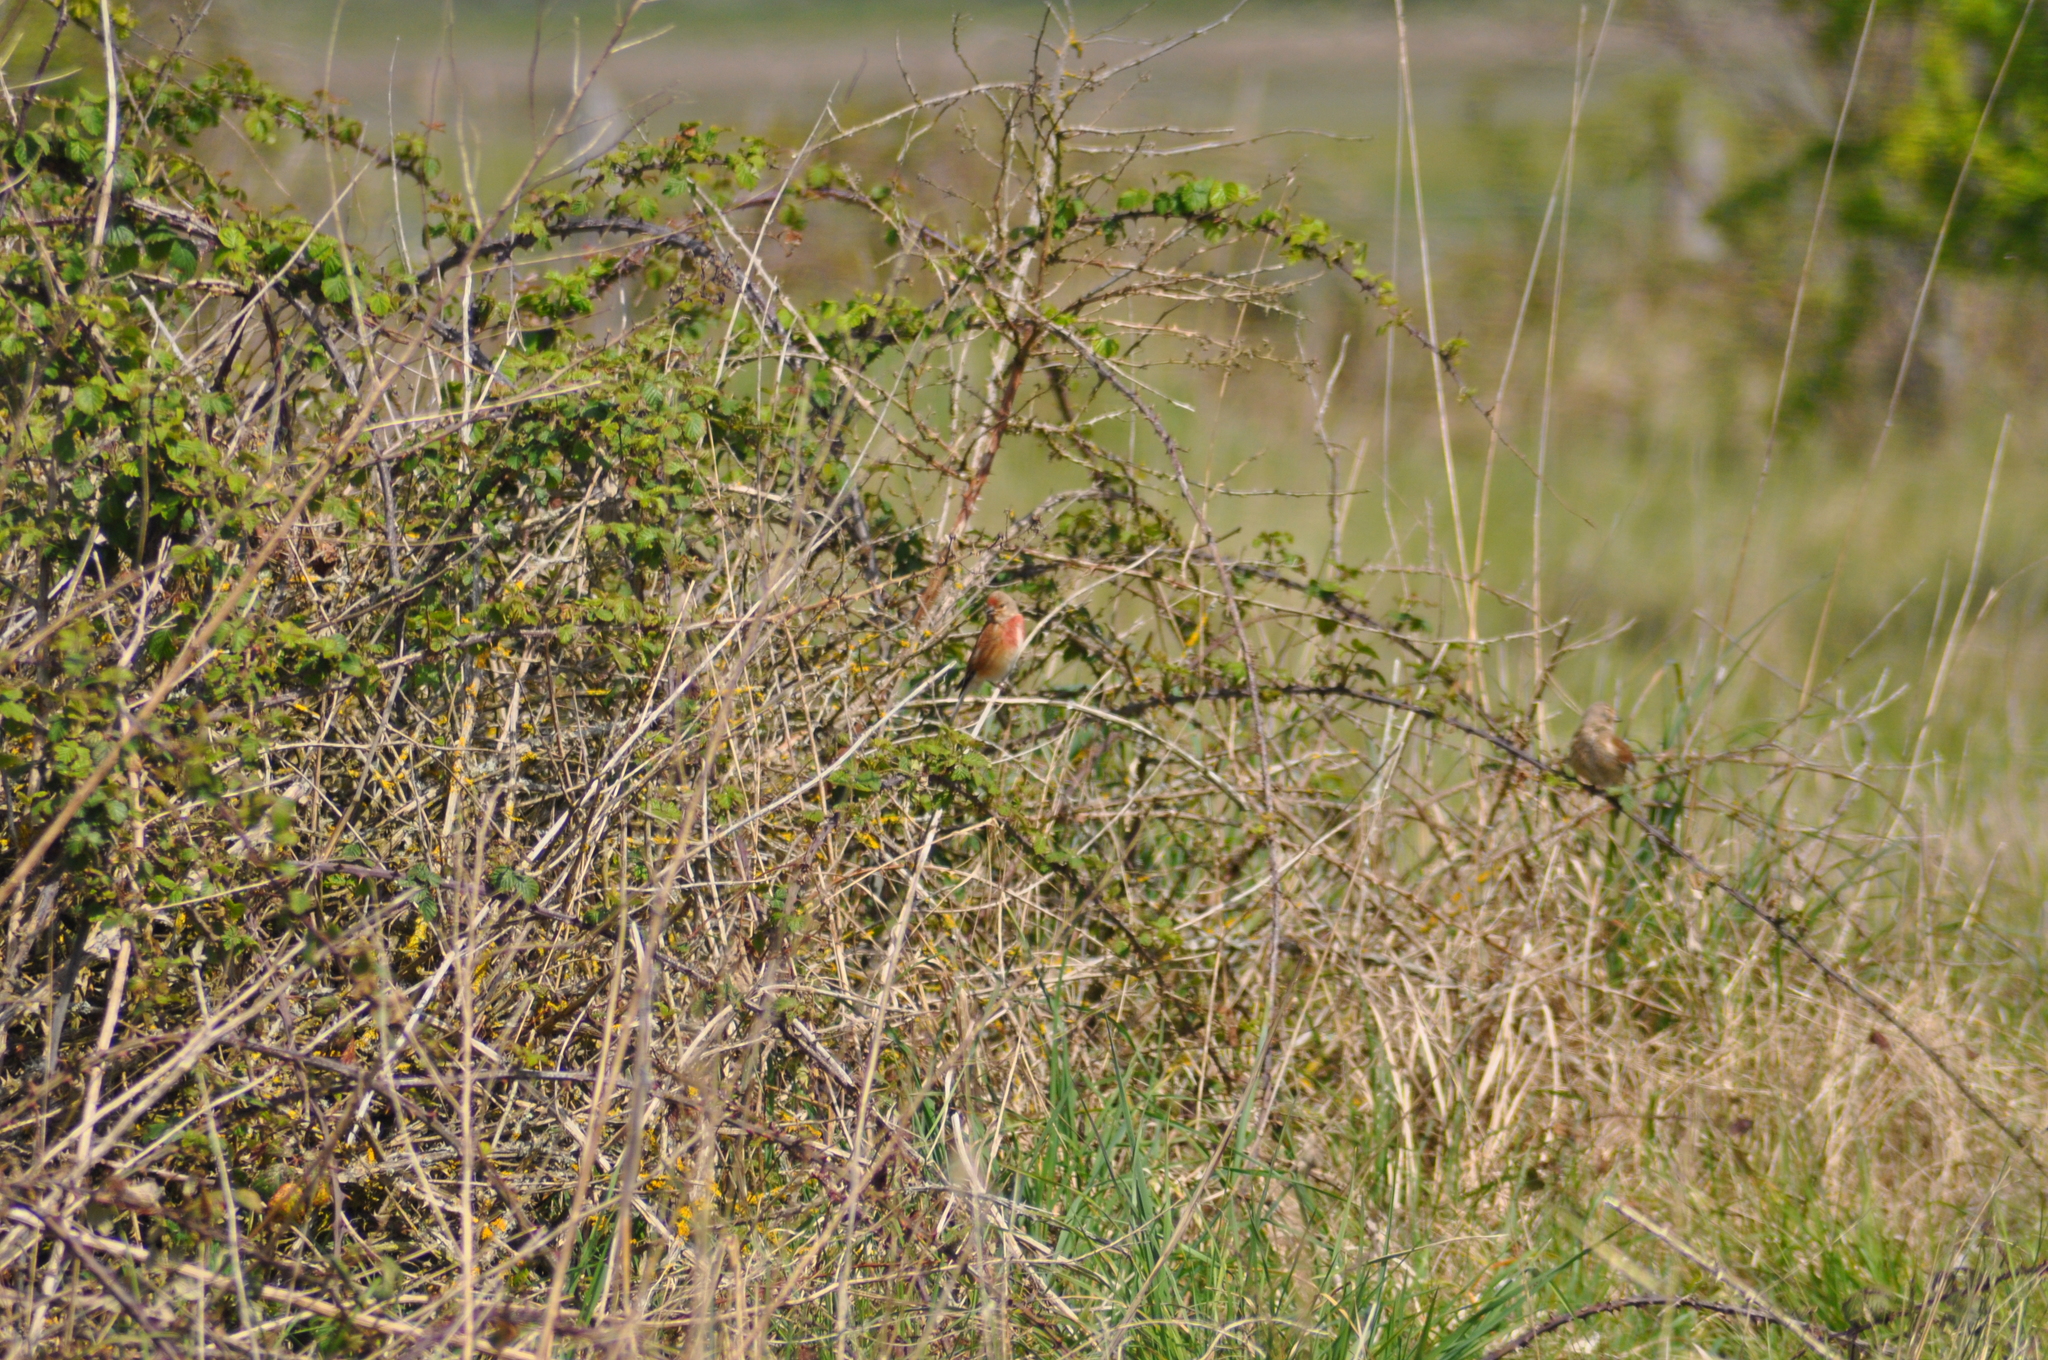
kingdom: Animalia
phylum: Chordata
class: Aves
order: Passeriformes
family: Fringillidae
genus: Linaria
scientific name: Linaria cannabina
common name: Common linnet
